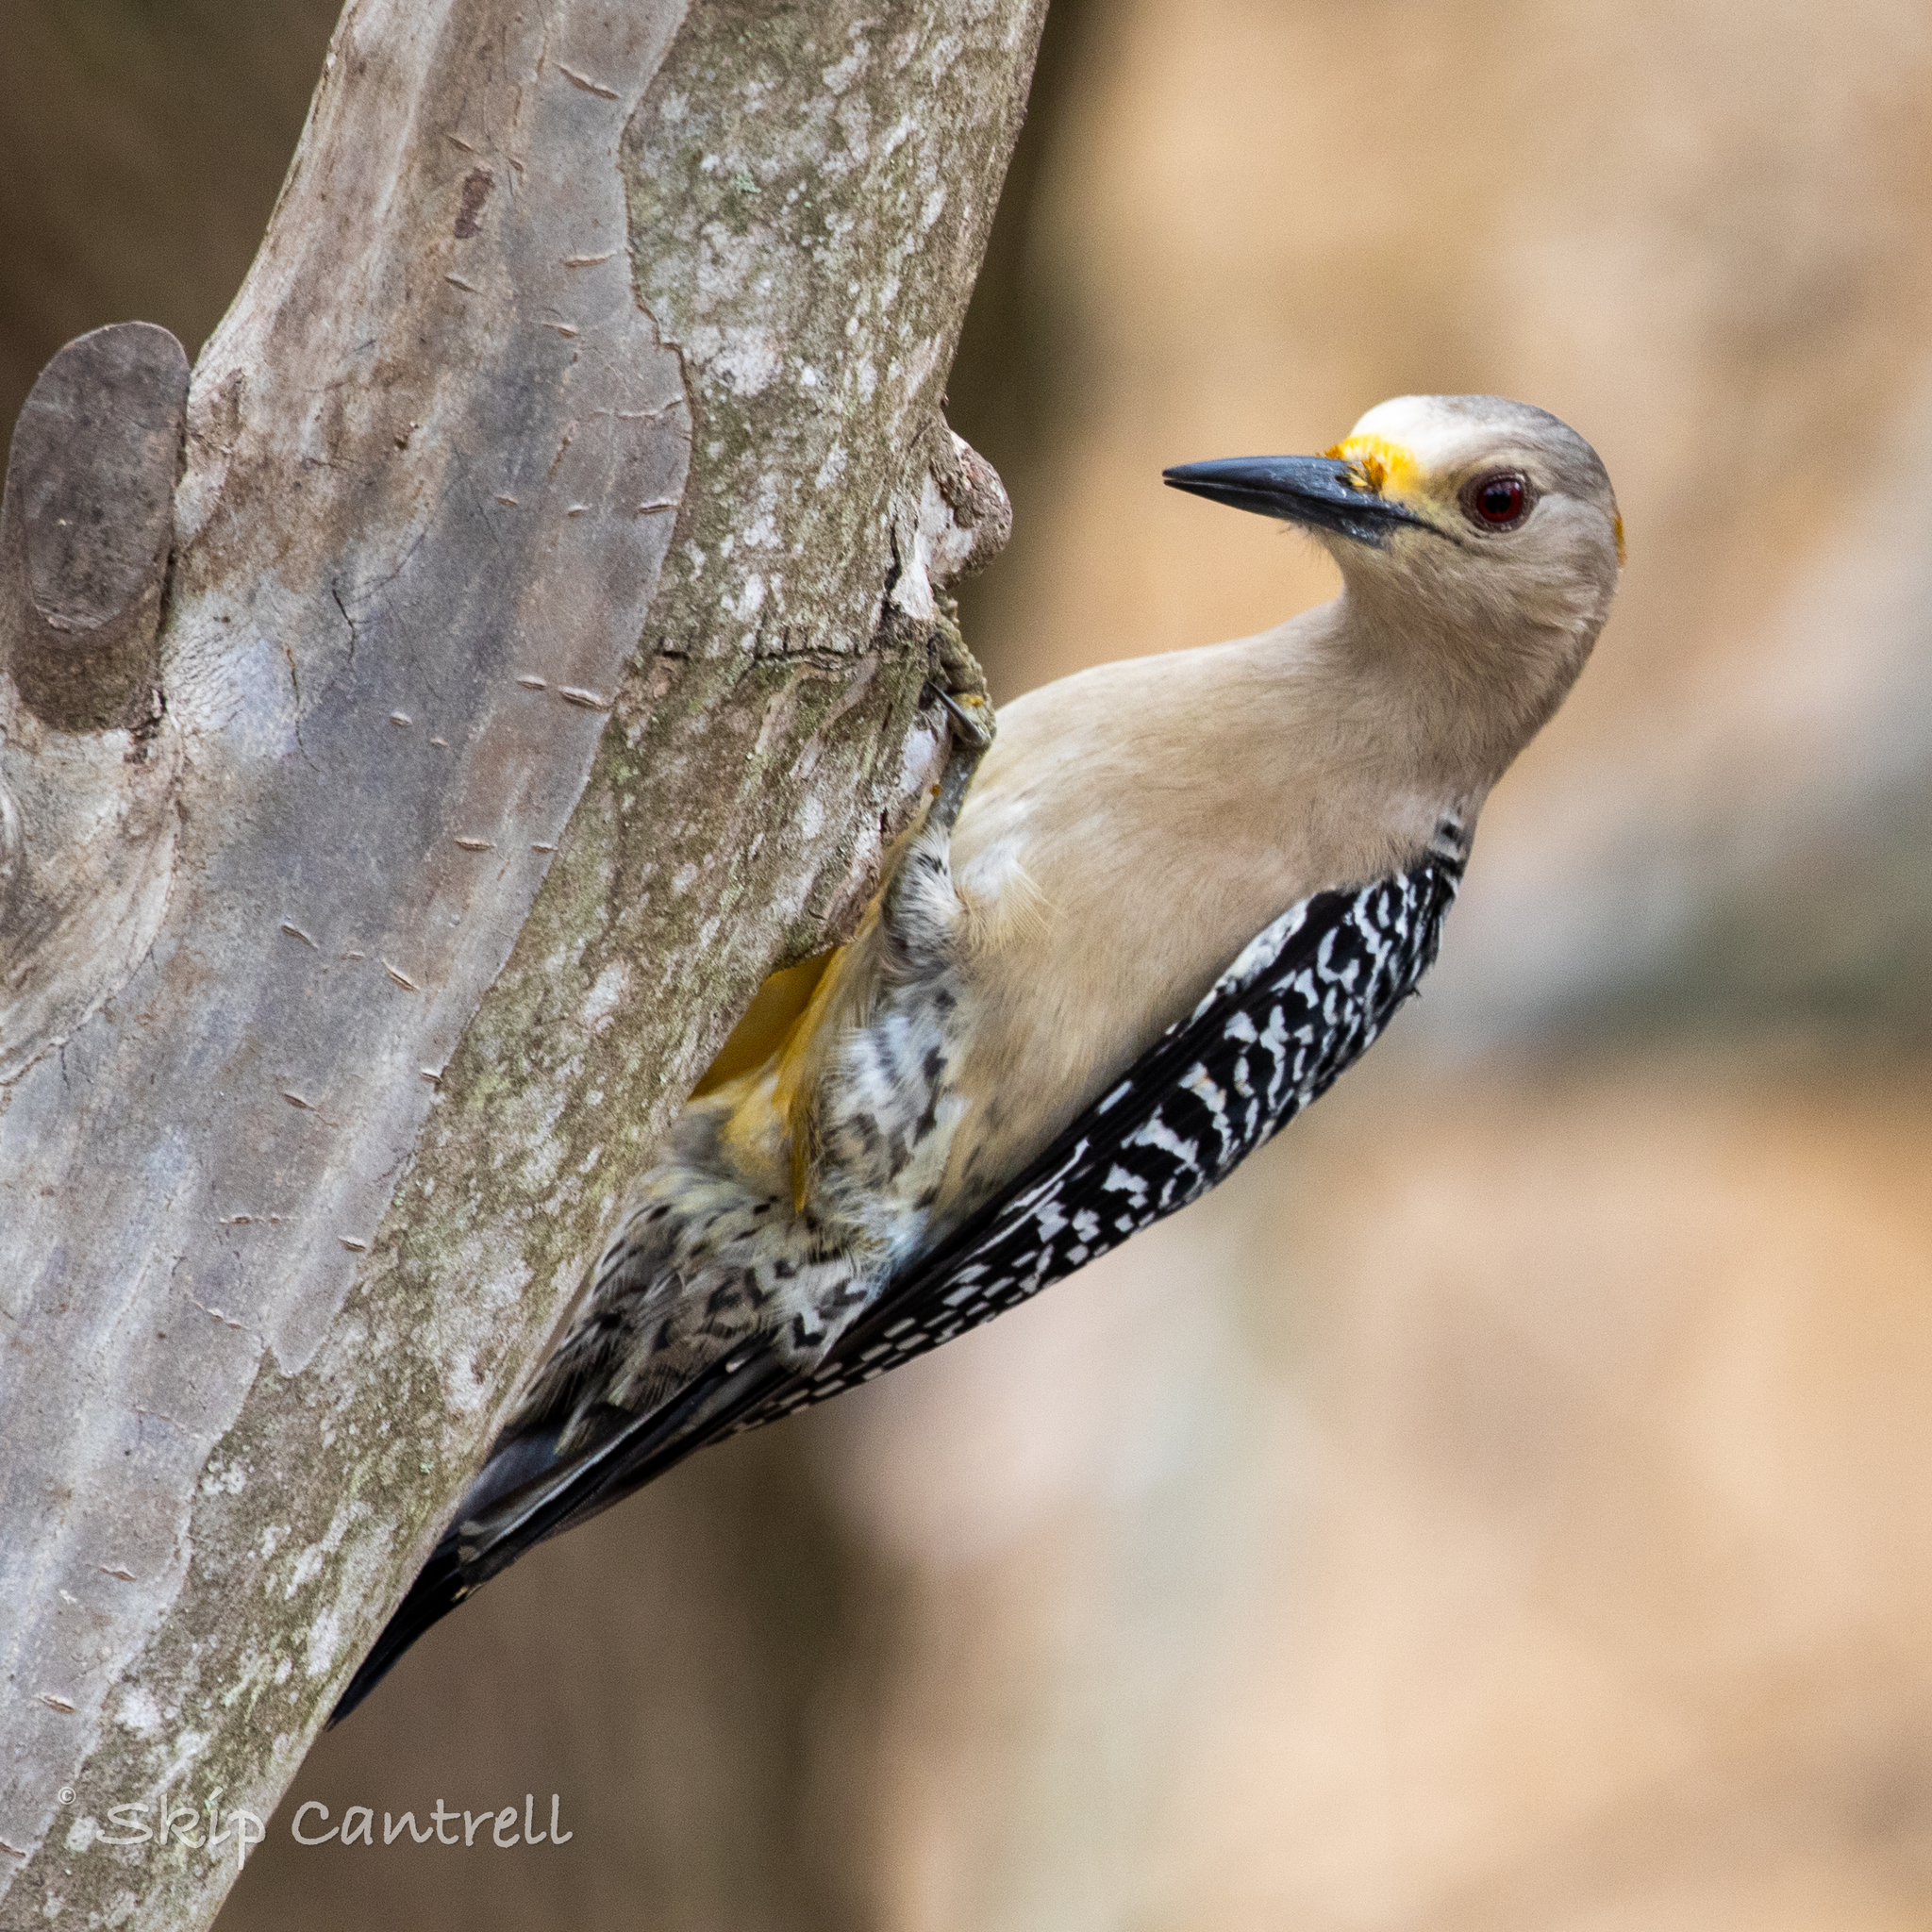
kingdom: Animalia
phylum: Chordata
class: Aves
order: Piciformes
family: Picidae
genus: Melanerpes
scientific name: Melanerpes aurifrons
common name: Golden-fronted woodpecker
